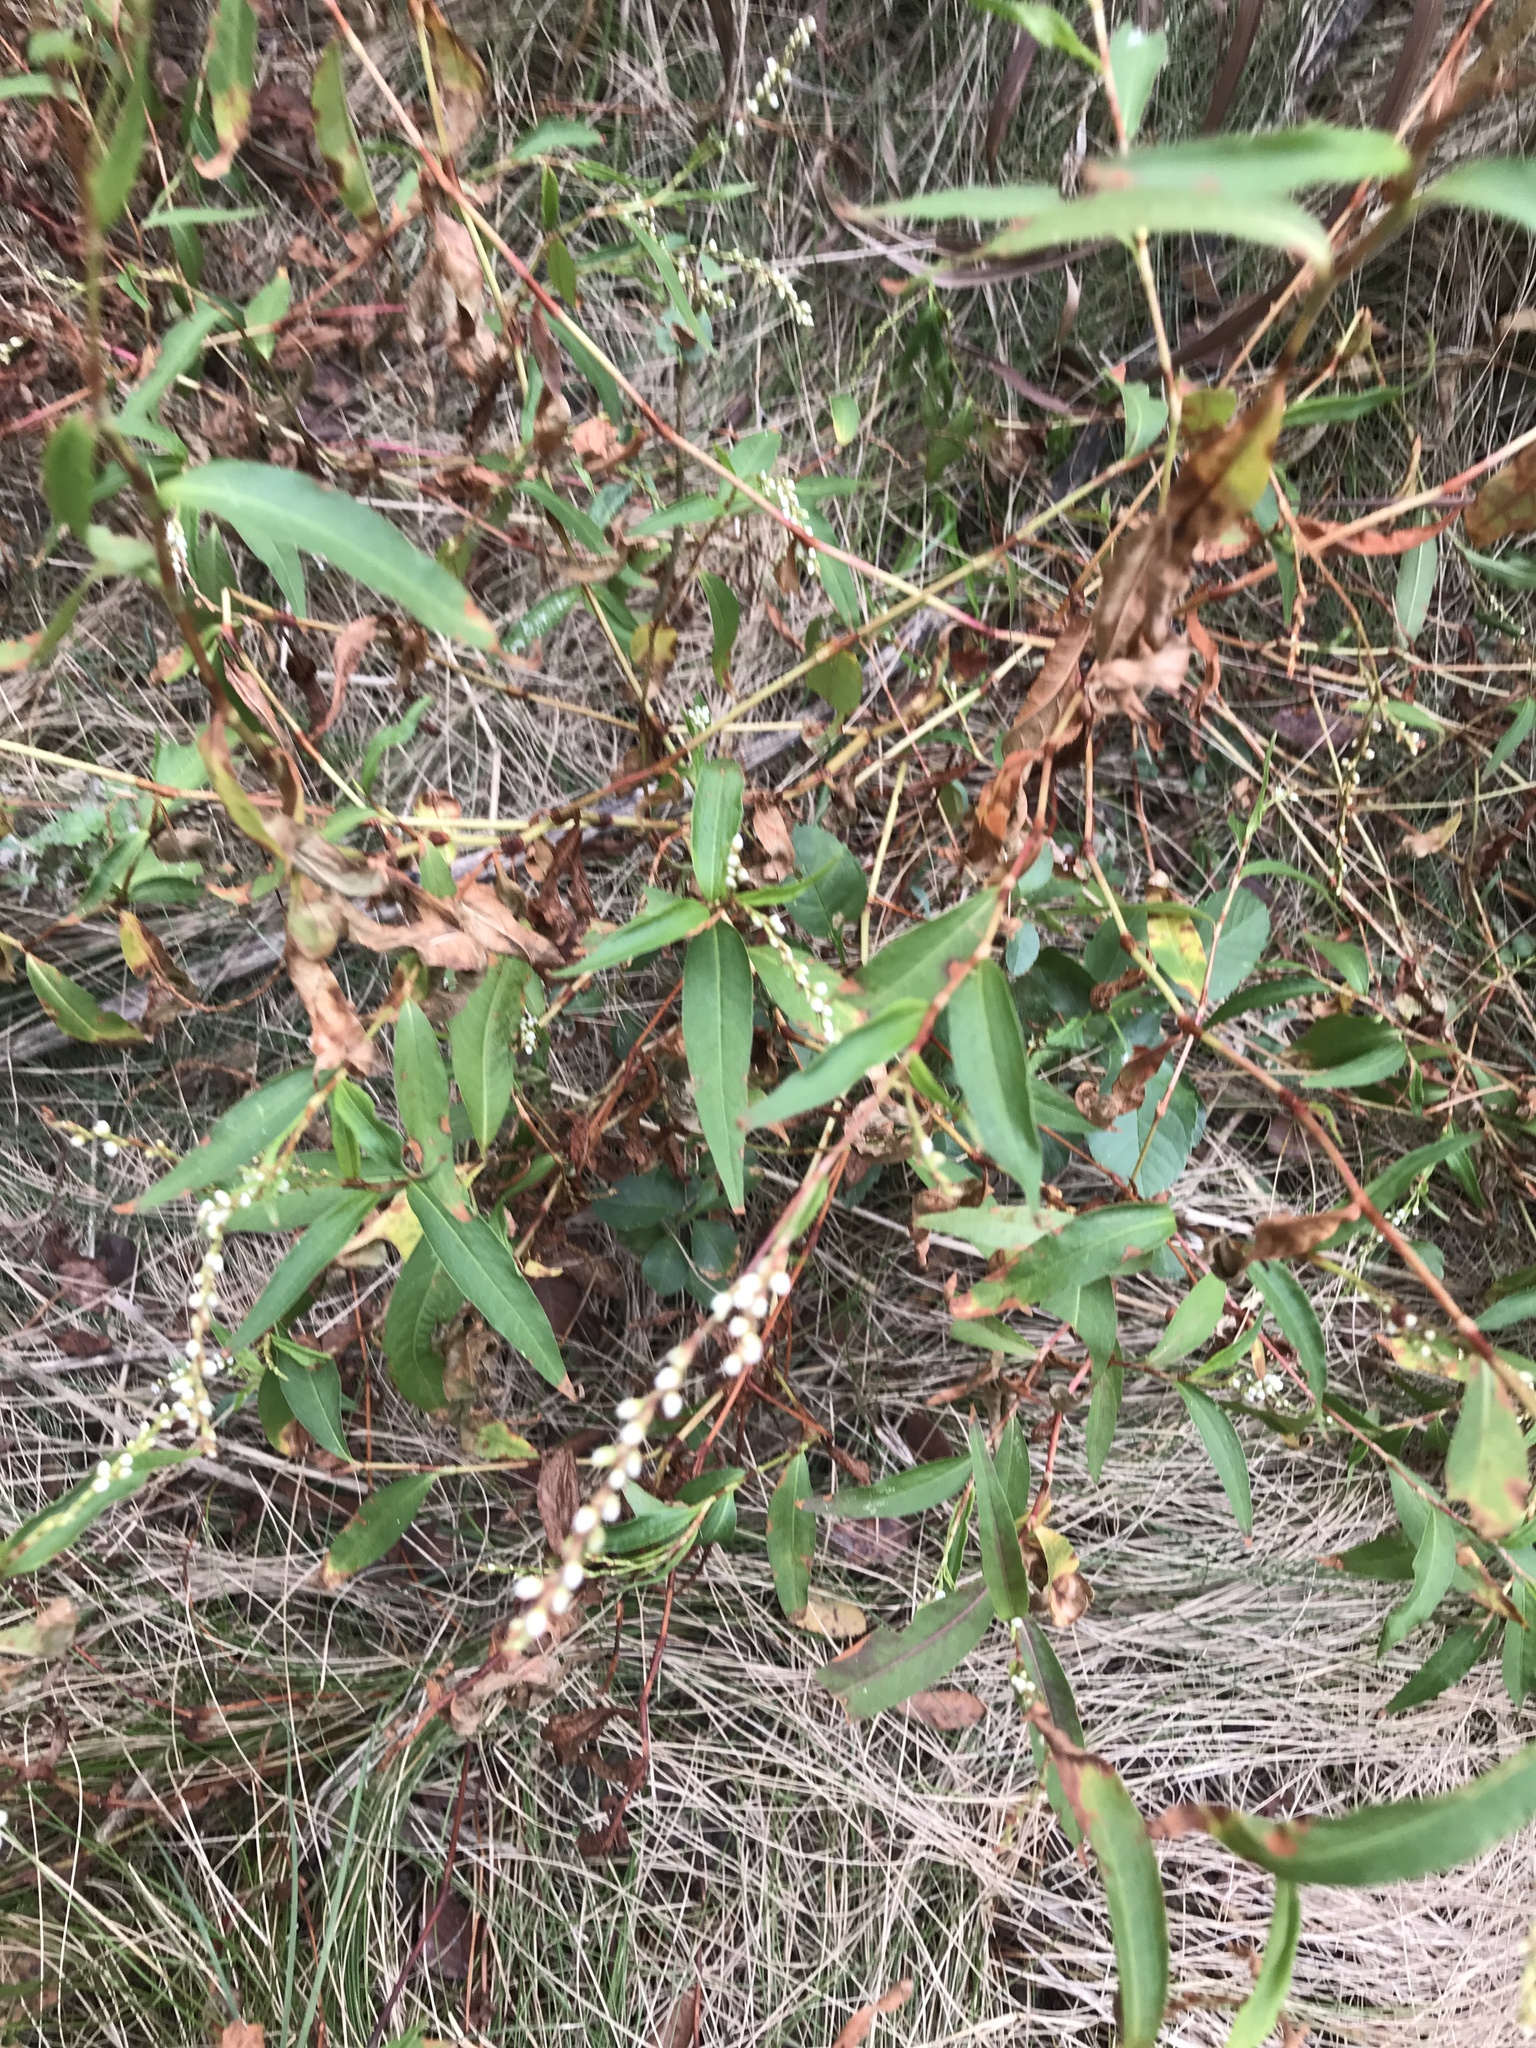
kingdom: Plantae
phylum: Tracheophyta
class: Magnoliopsida
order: Caryophyllales
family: Polygonaceae
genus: Persicaria
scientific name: Persicaria hydropiperoides
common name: Swamp smartweed
